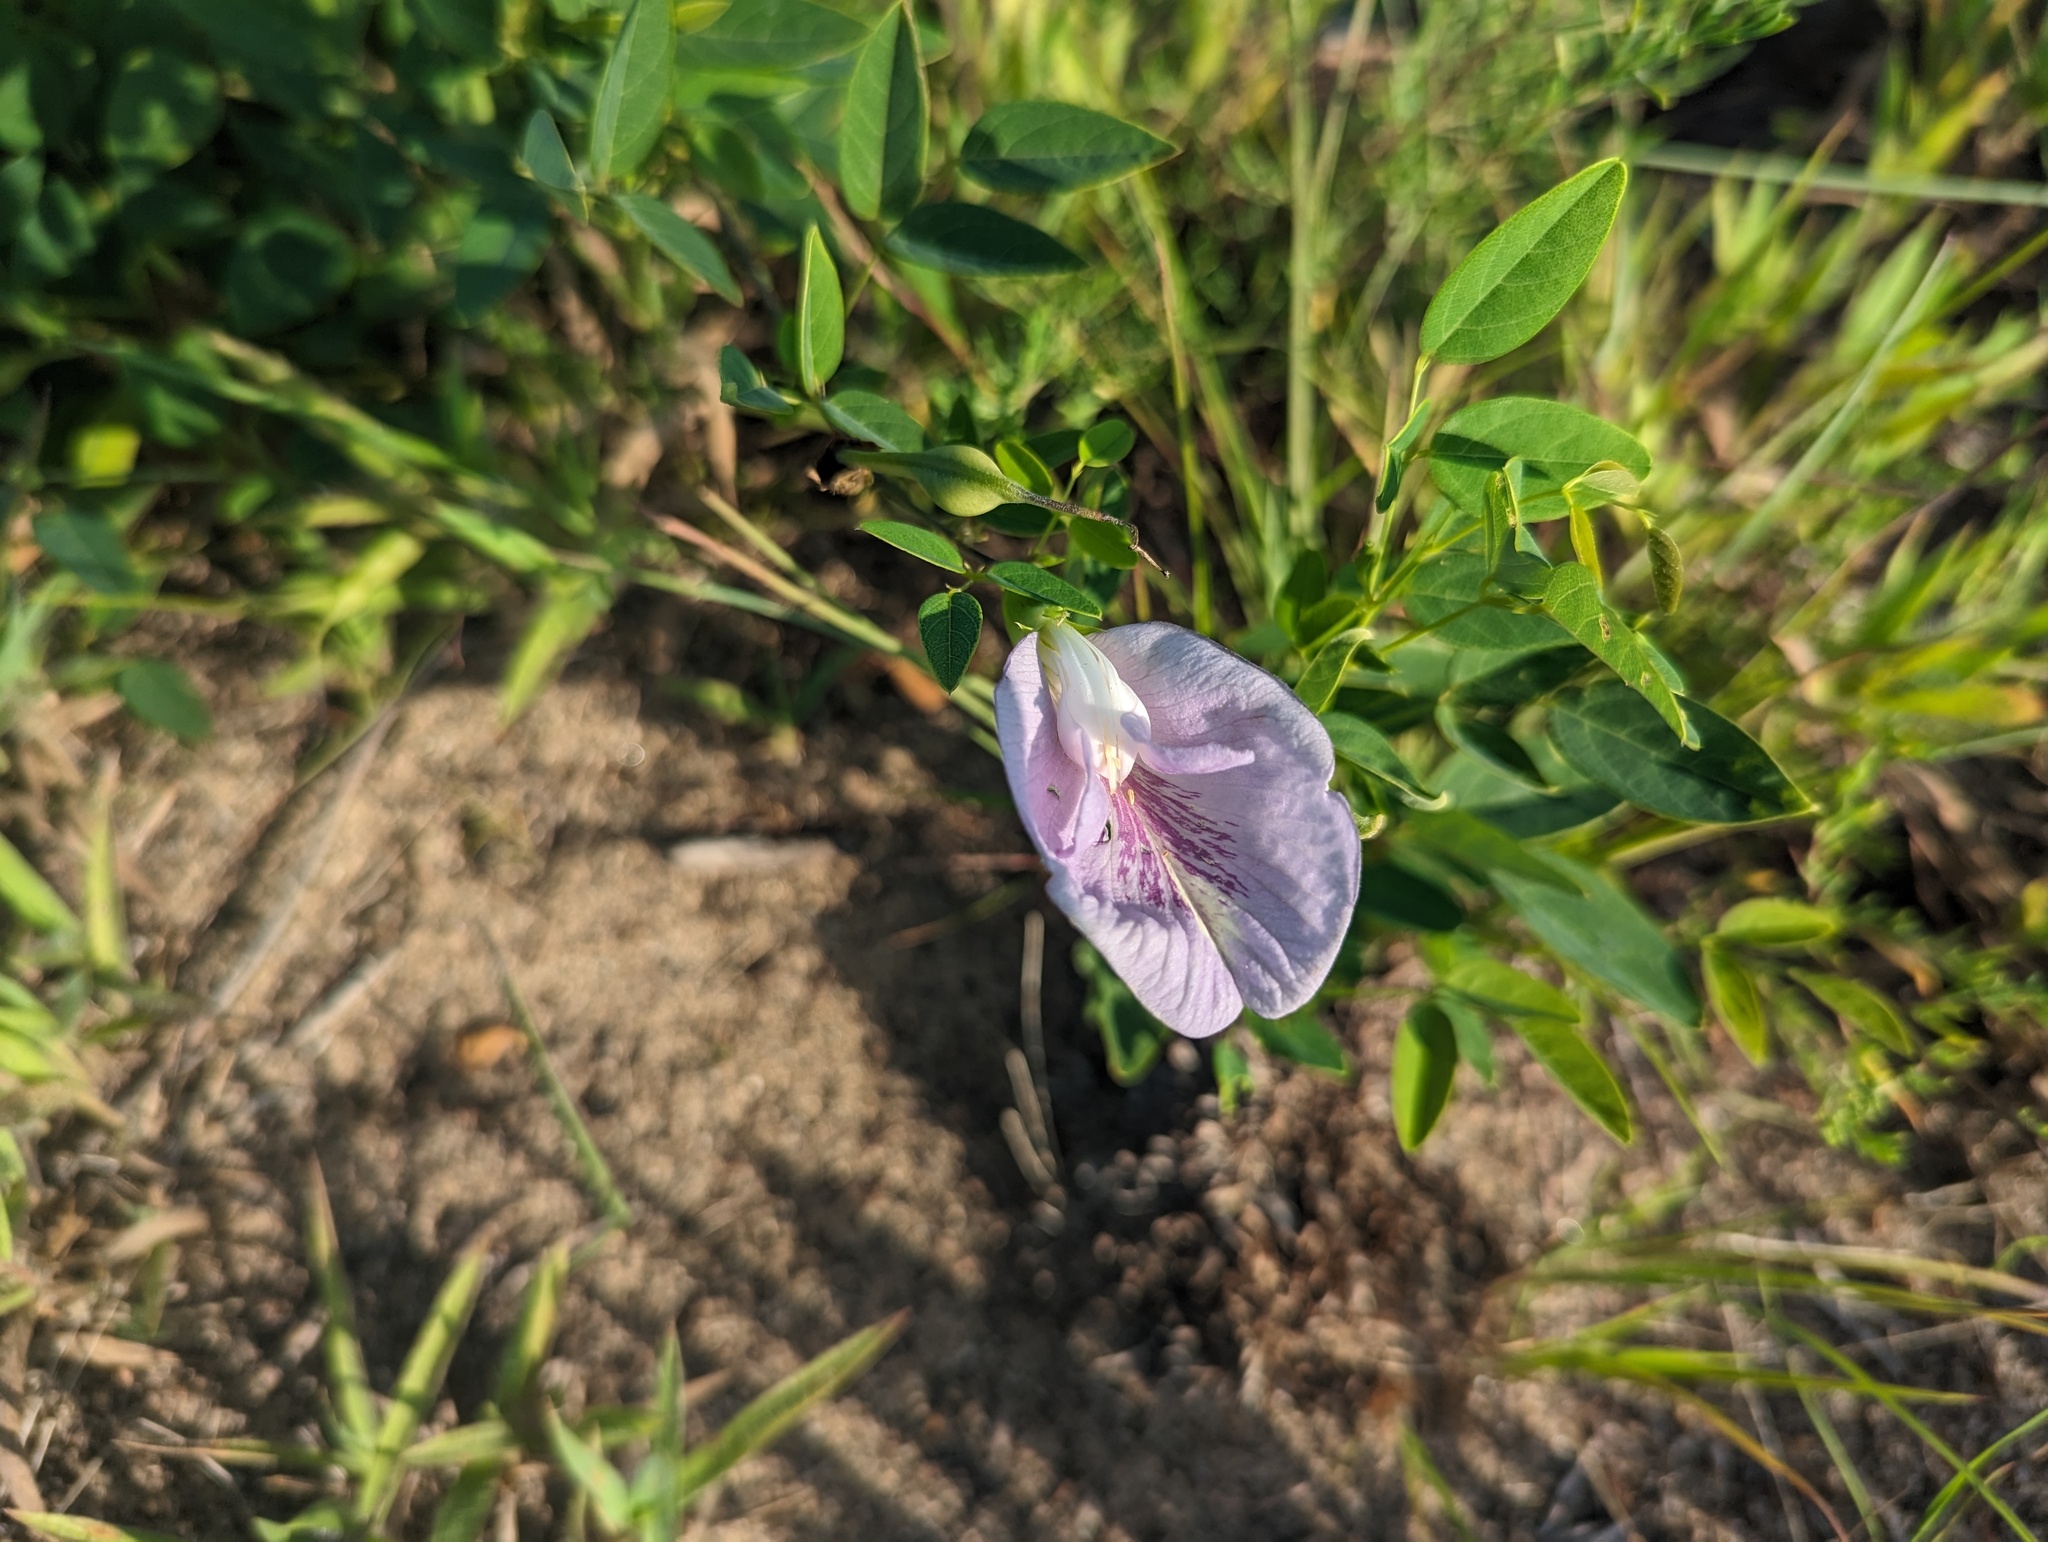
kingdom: Plantae
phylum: Tracheophyta
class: Magnoliopsida
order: Fabales
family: Fabaceae
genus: Clitoria
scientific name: Clitoria mariana
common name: Butterfly-pea
